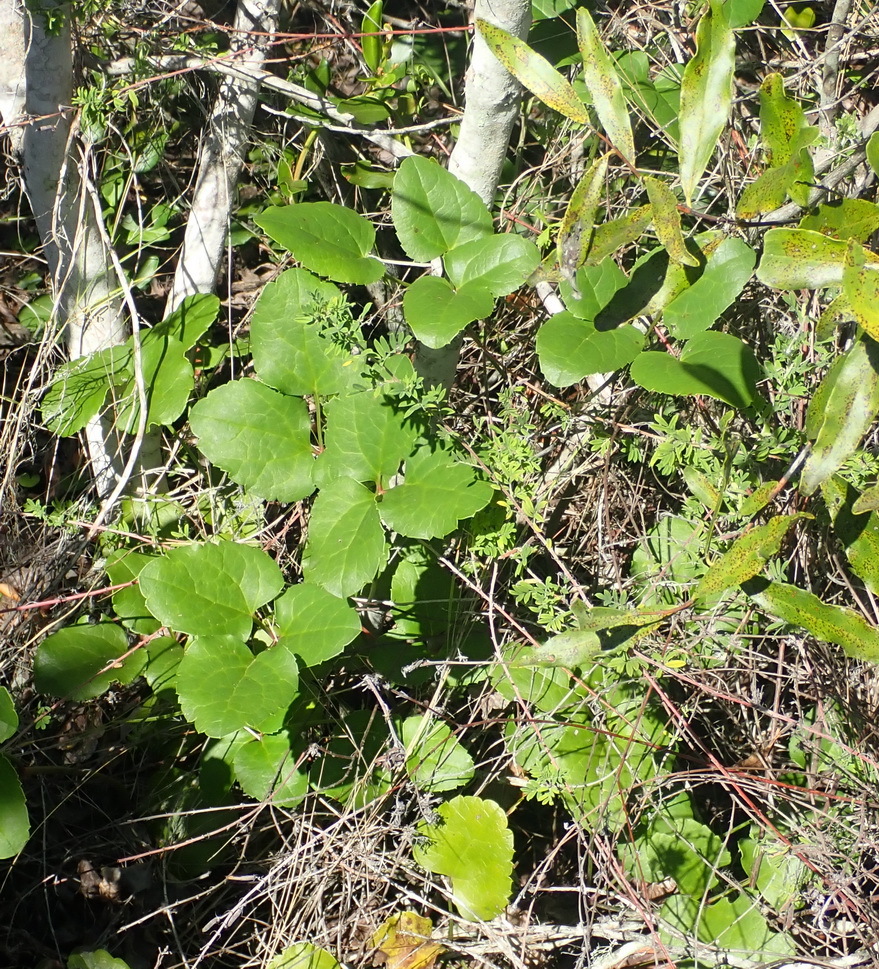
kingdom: Plantae
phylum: Tracheophyta
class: Magnoliopsida
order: Ranunculales
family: Ranunculaceae
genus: Knowltonia
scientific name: Knowltonia vesicatoria
